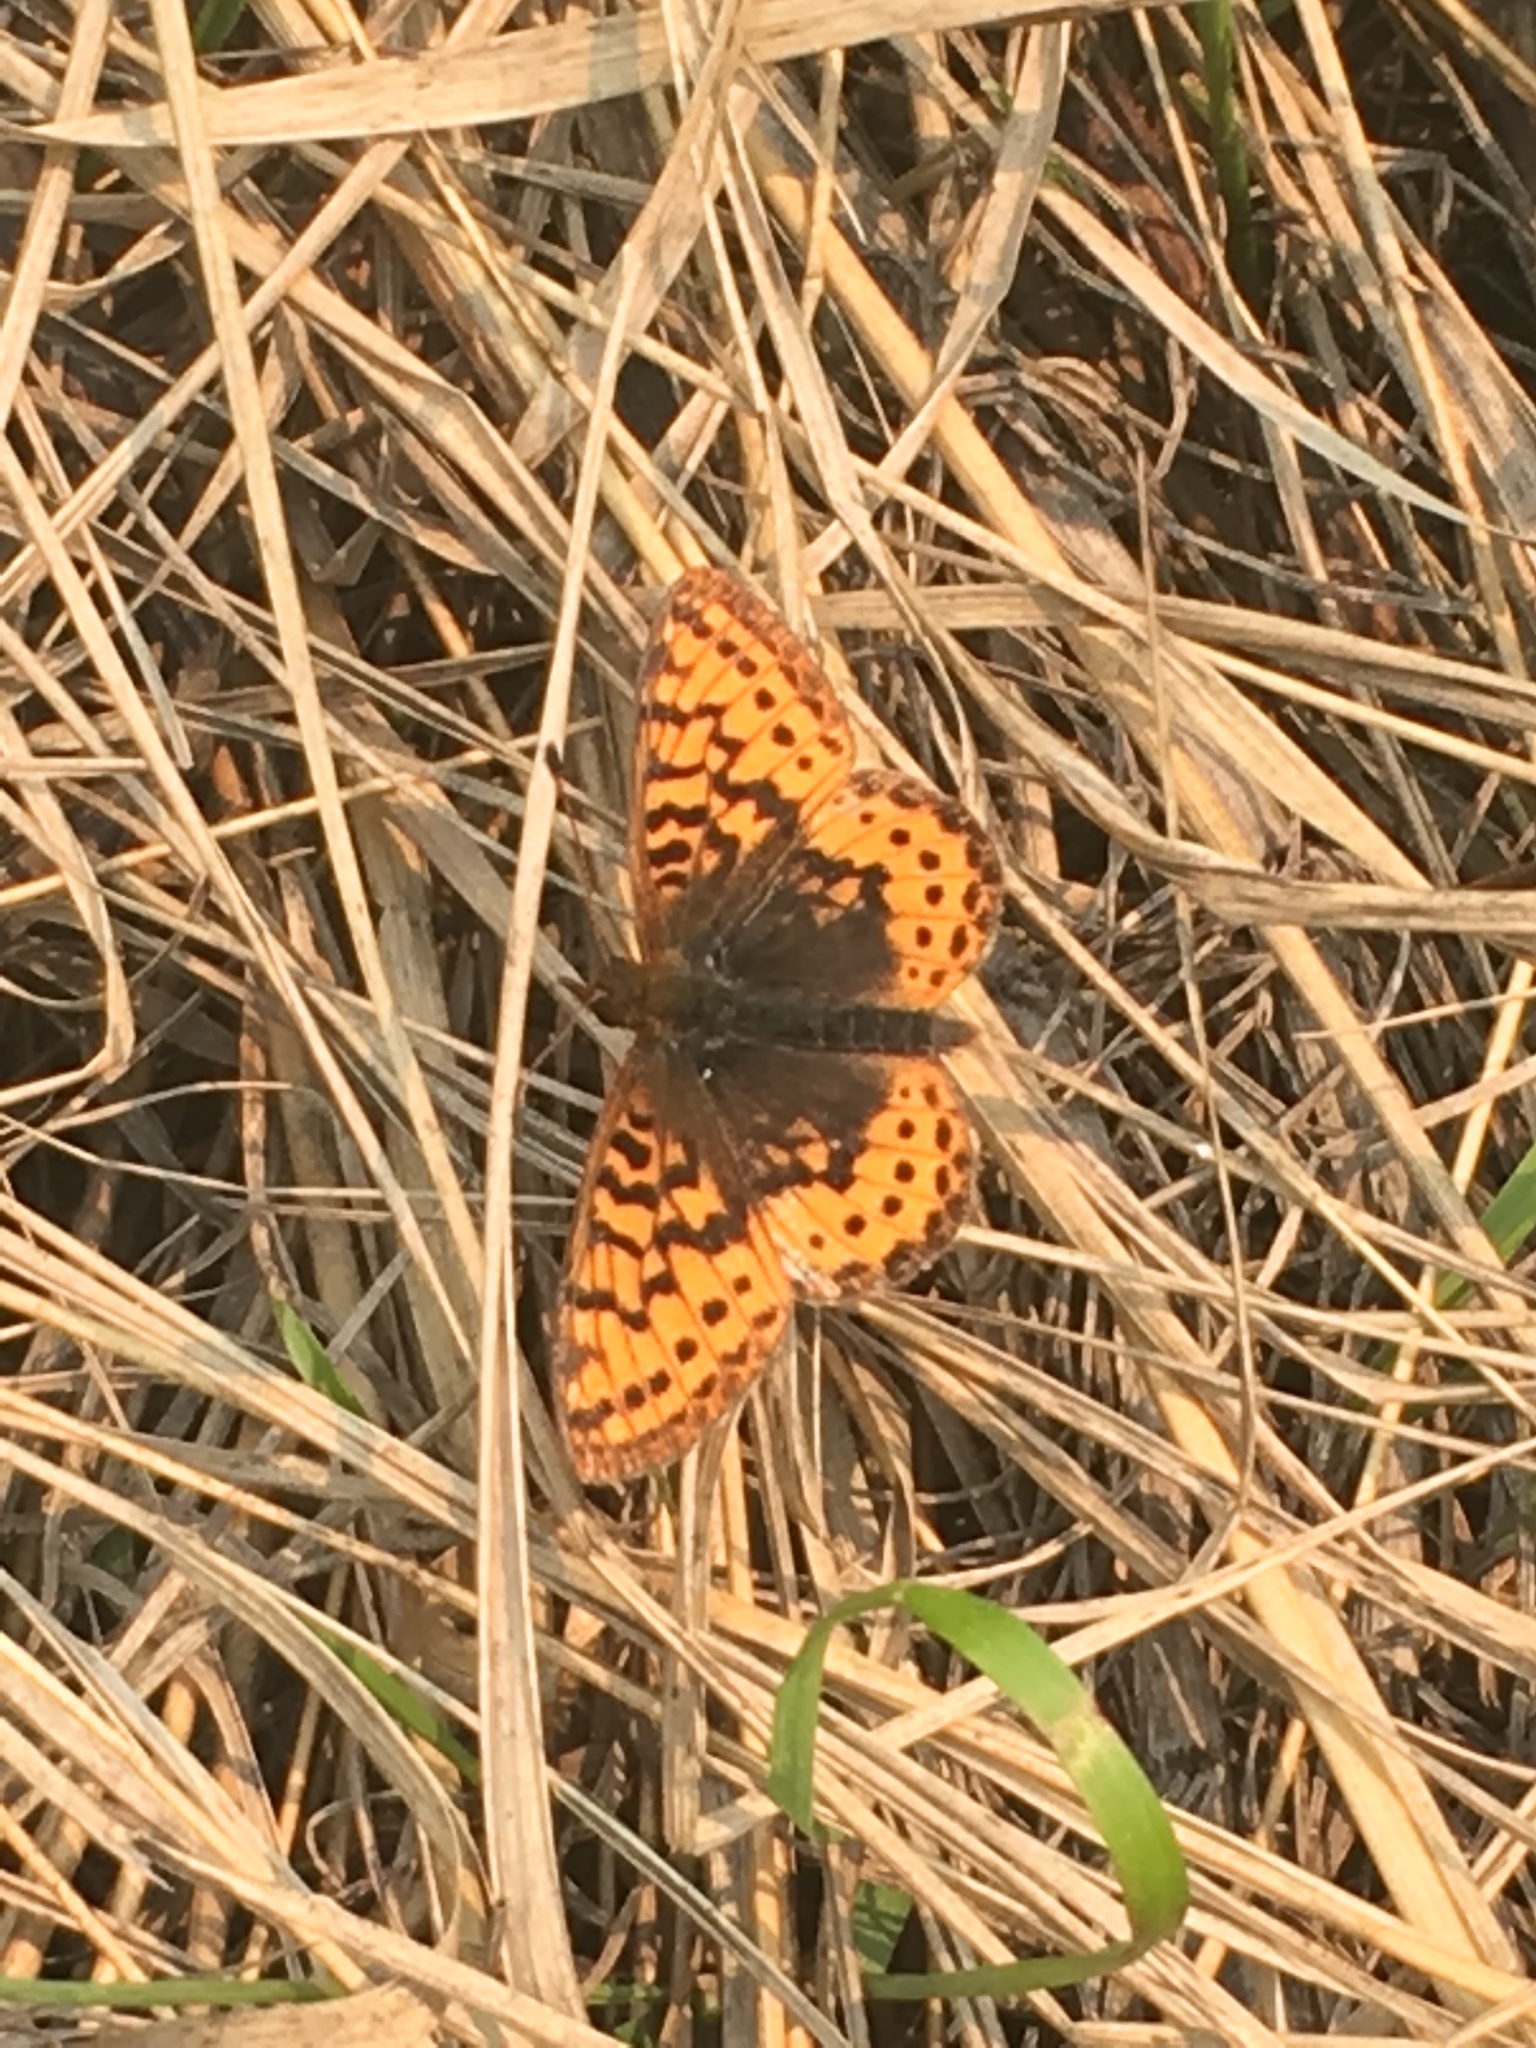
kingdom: Animalia
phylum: Arthropoda
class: Insecta
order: Lepidoptera
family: Nymphalidae
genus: Boloria
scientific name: Boloria frigga
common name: Frigga's fritillary
